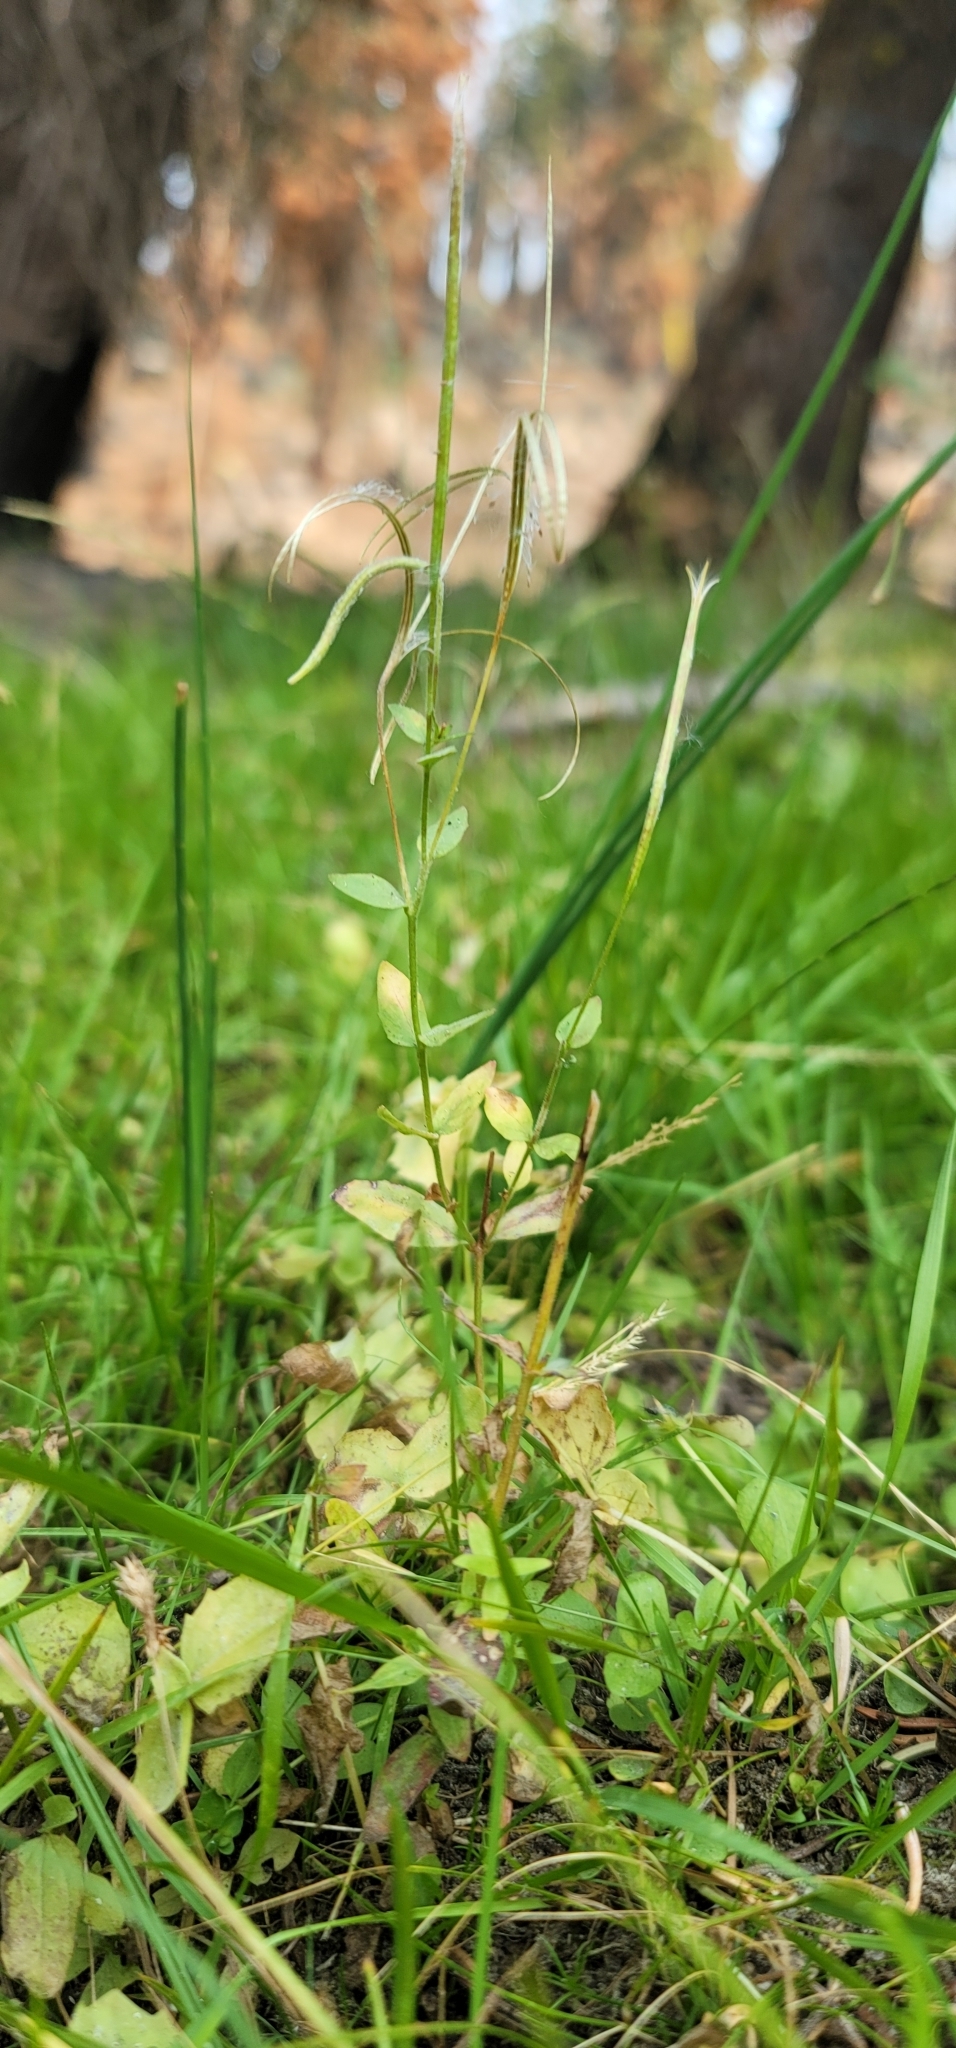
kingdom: Plantae
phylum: Tracheophyta
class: Magnoliopsida
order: Myrtales
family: Onagraceae
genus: Epilobium
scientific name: Epilobium howellii
